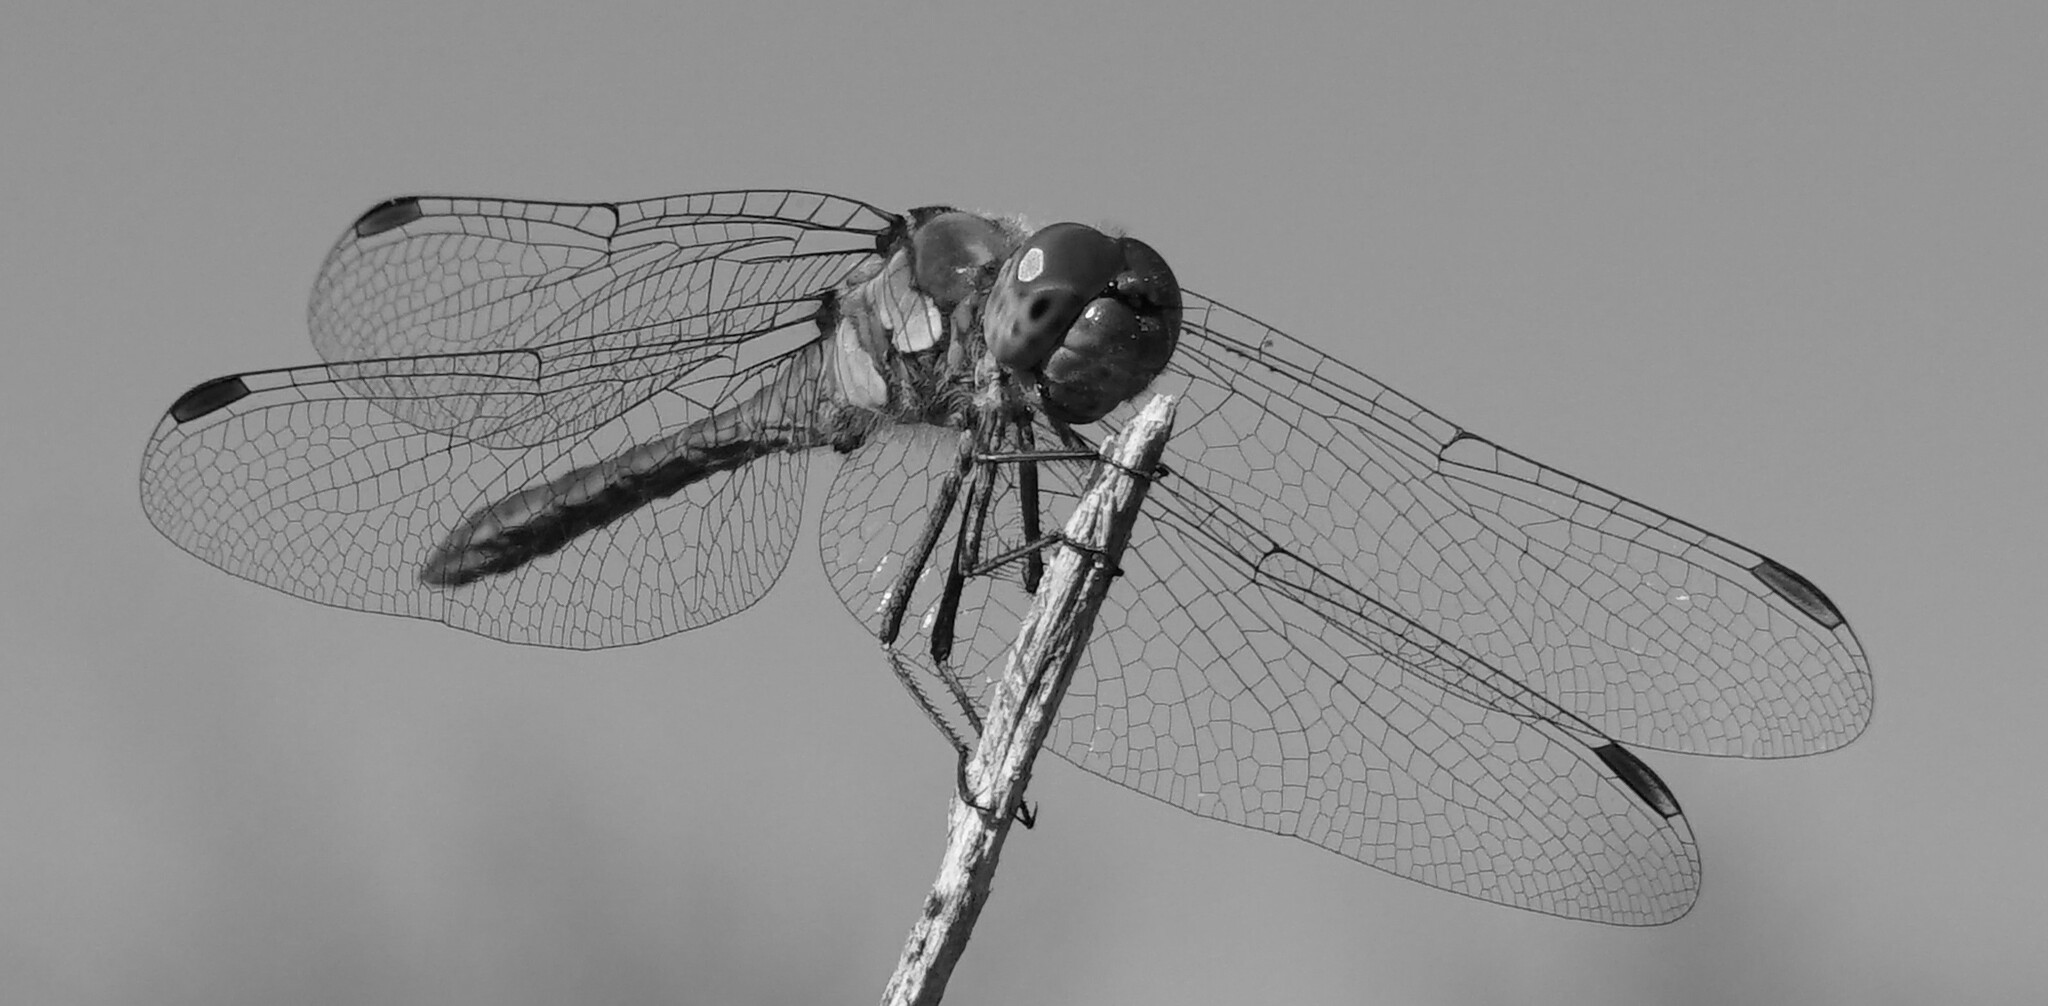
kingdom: Animalia
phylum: Arthropoda
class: Insecta
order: Odonata
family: Libellulidae
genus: Sympetrum
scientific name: Sympetrum striolatum
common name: Common darter
